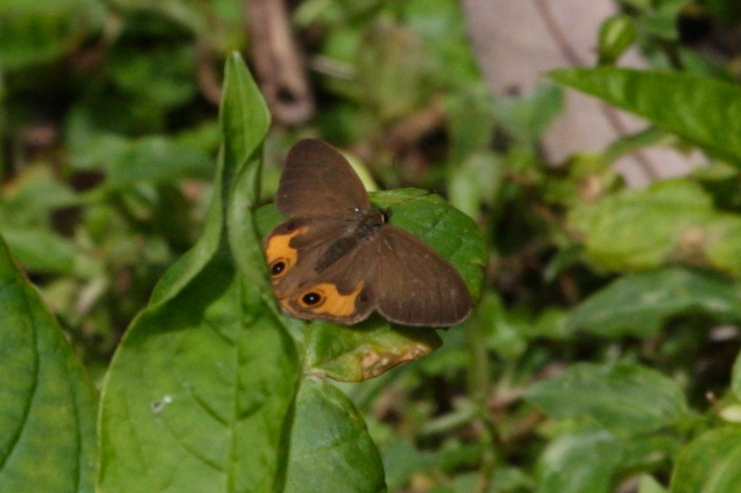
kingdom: Animalia
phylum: Arthropoda
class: Insecta
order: Lepidoptera
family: Nymphalidae
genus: Hypocysta
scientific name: Hypocysta metirius
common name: Brown ringlet
